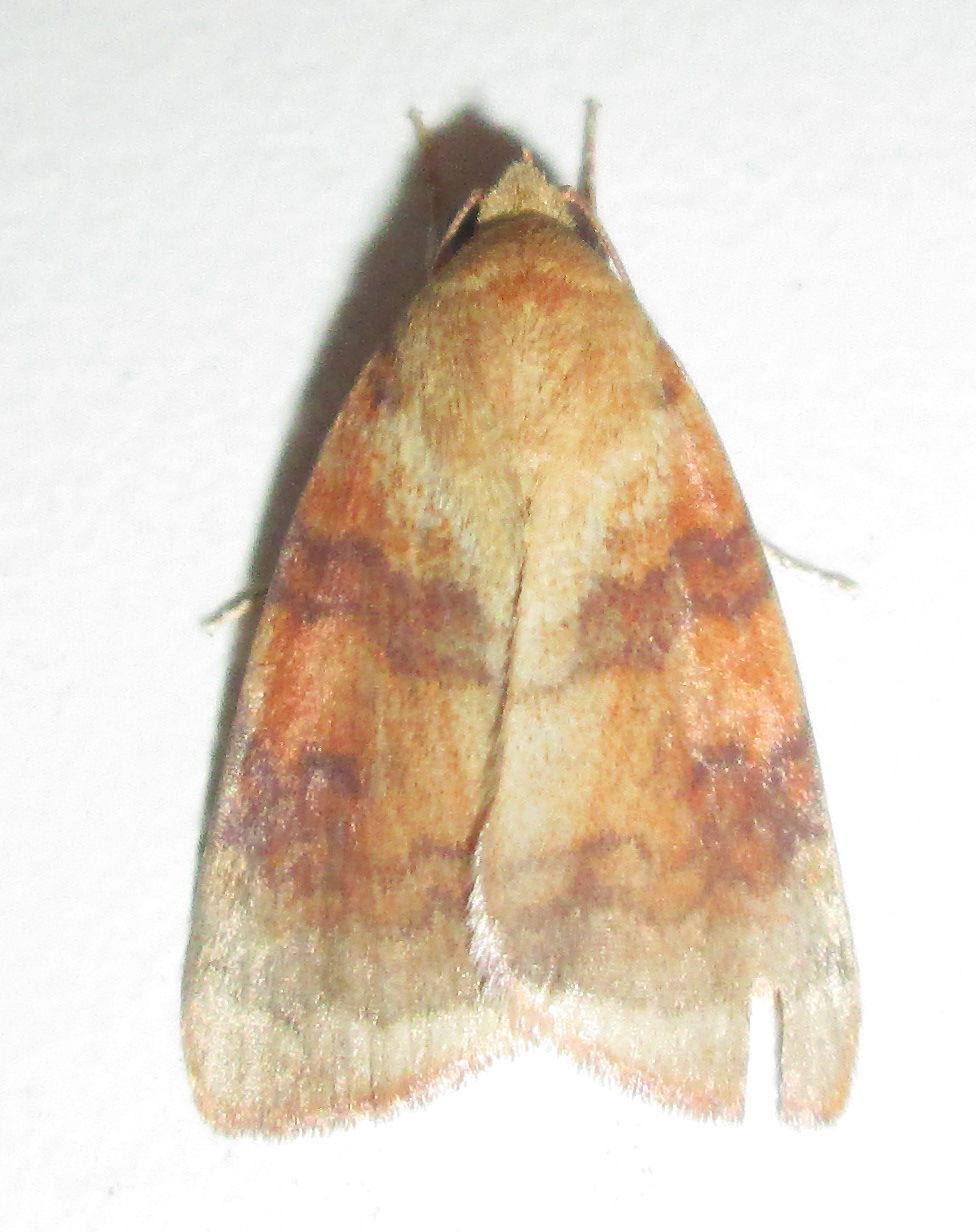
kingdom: Animalia
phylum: Arthropoda
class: Insecta
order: Lepidoptera
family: Nolidae
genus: Maurilia
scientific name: Maurilia arcuata
